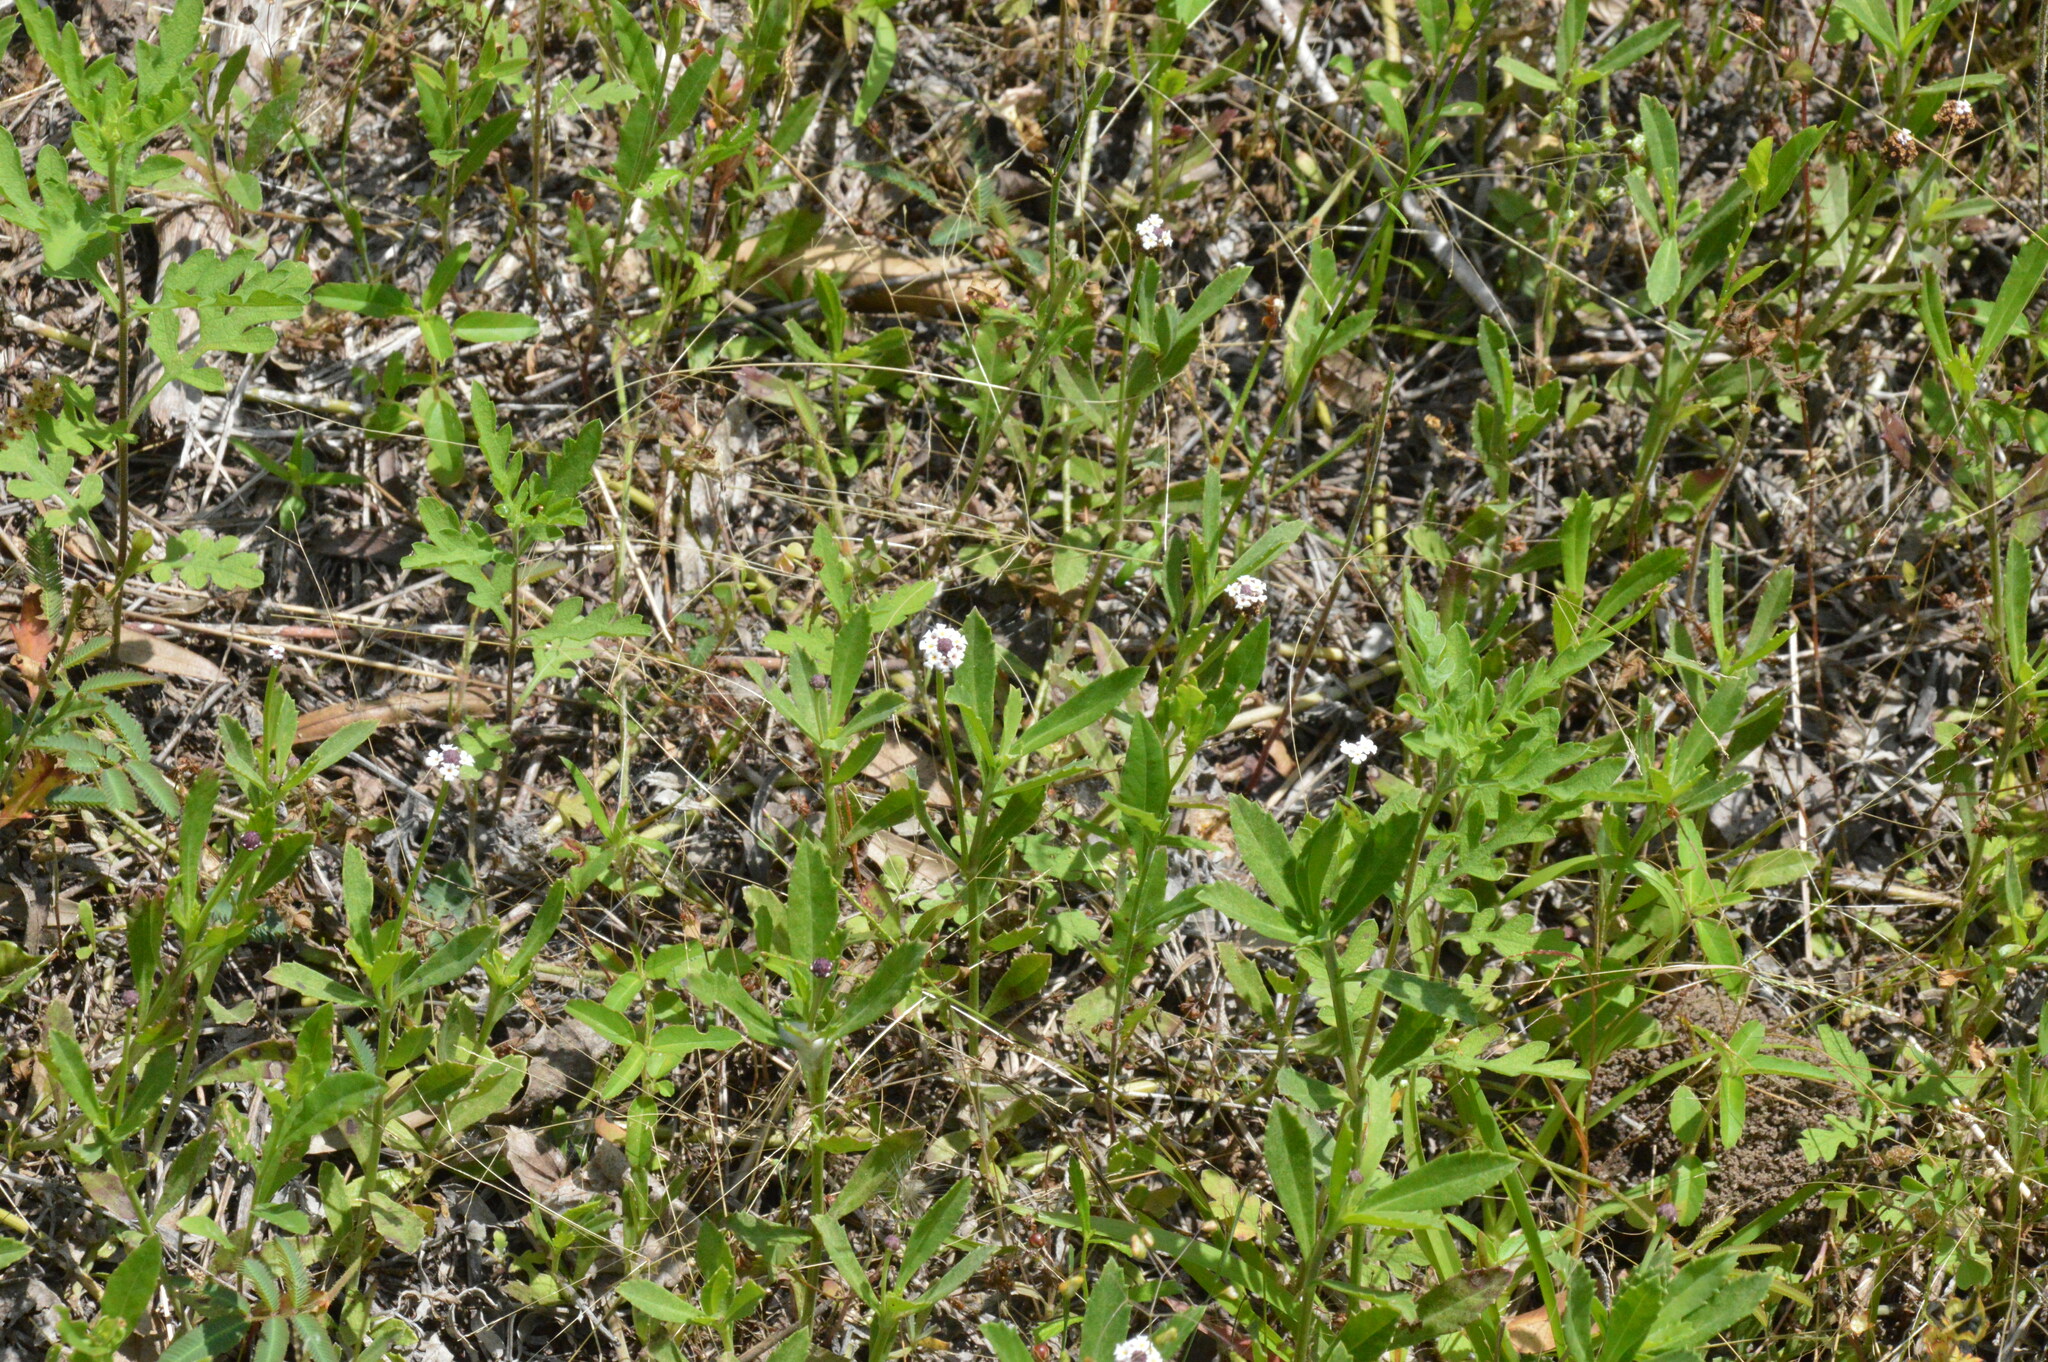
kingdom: Plantae
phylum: Tracheophyta
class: Magnoliopsida
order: Lamiales
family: Verbenaceae
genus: Phyla
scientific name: Phyla nodiflora
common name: Frogfruit
